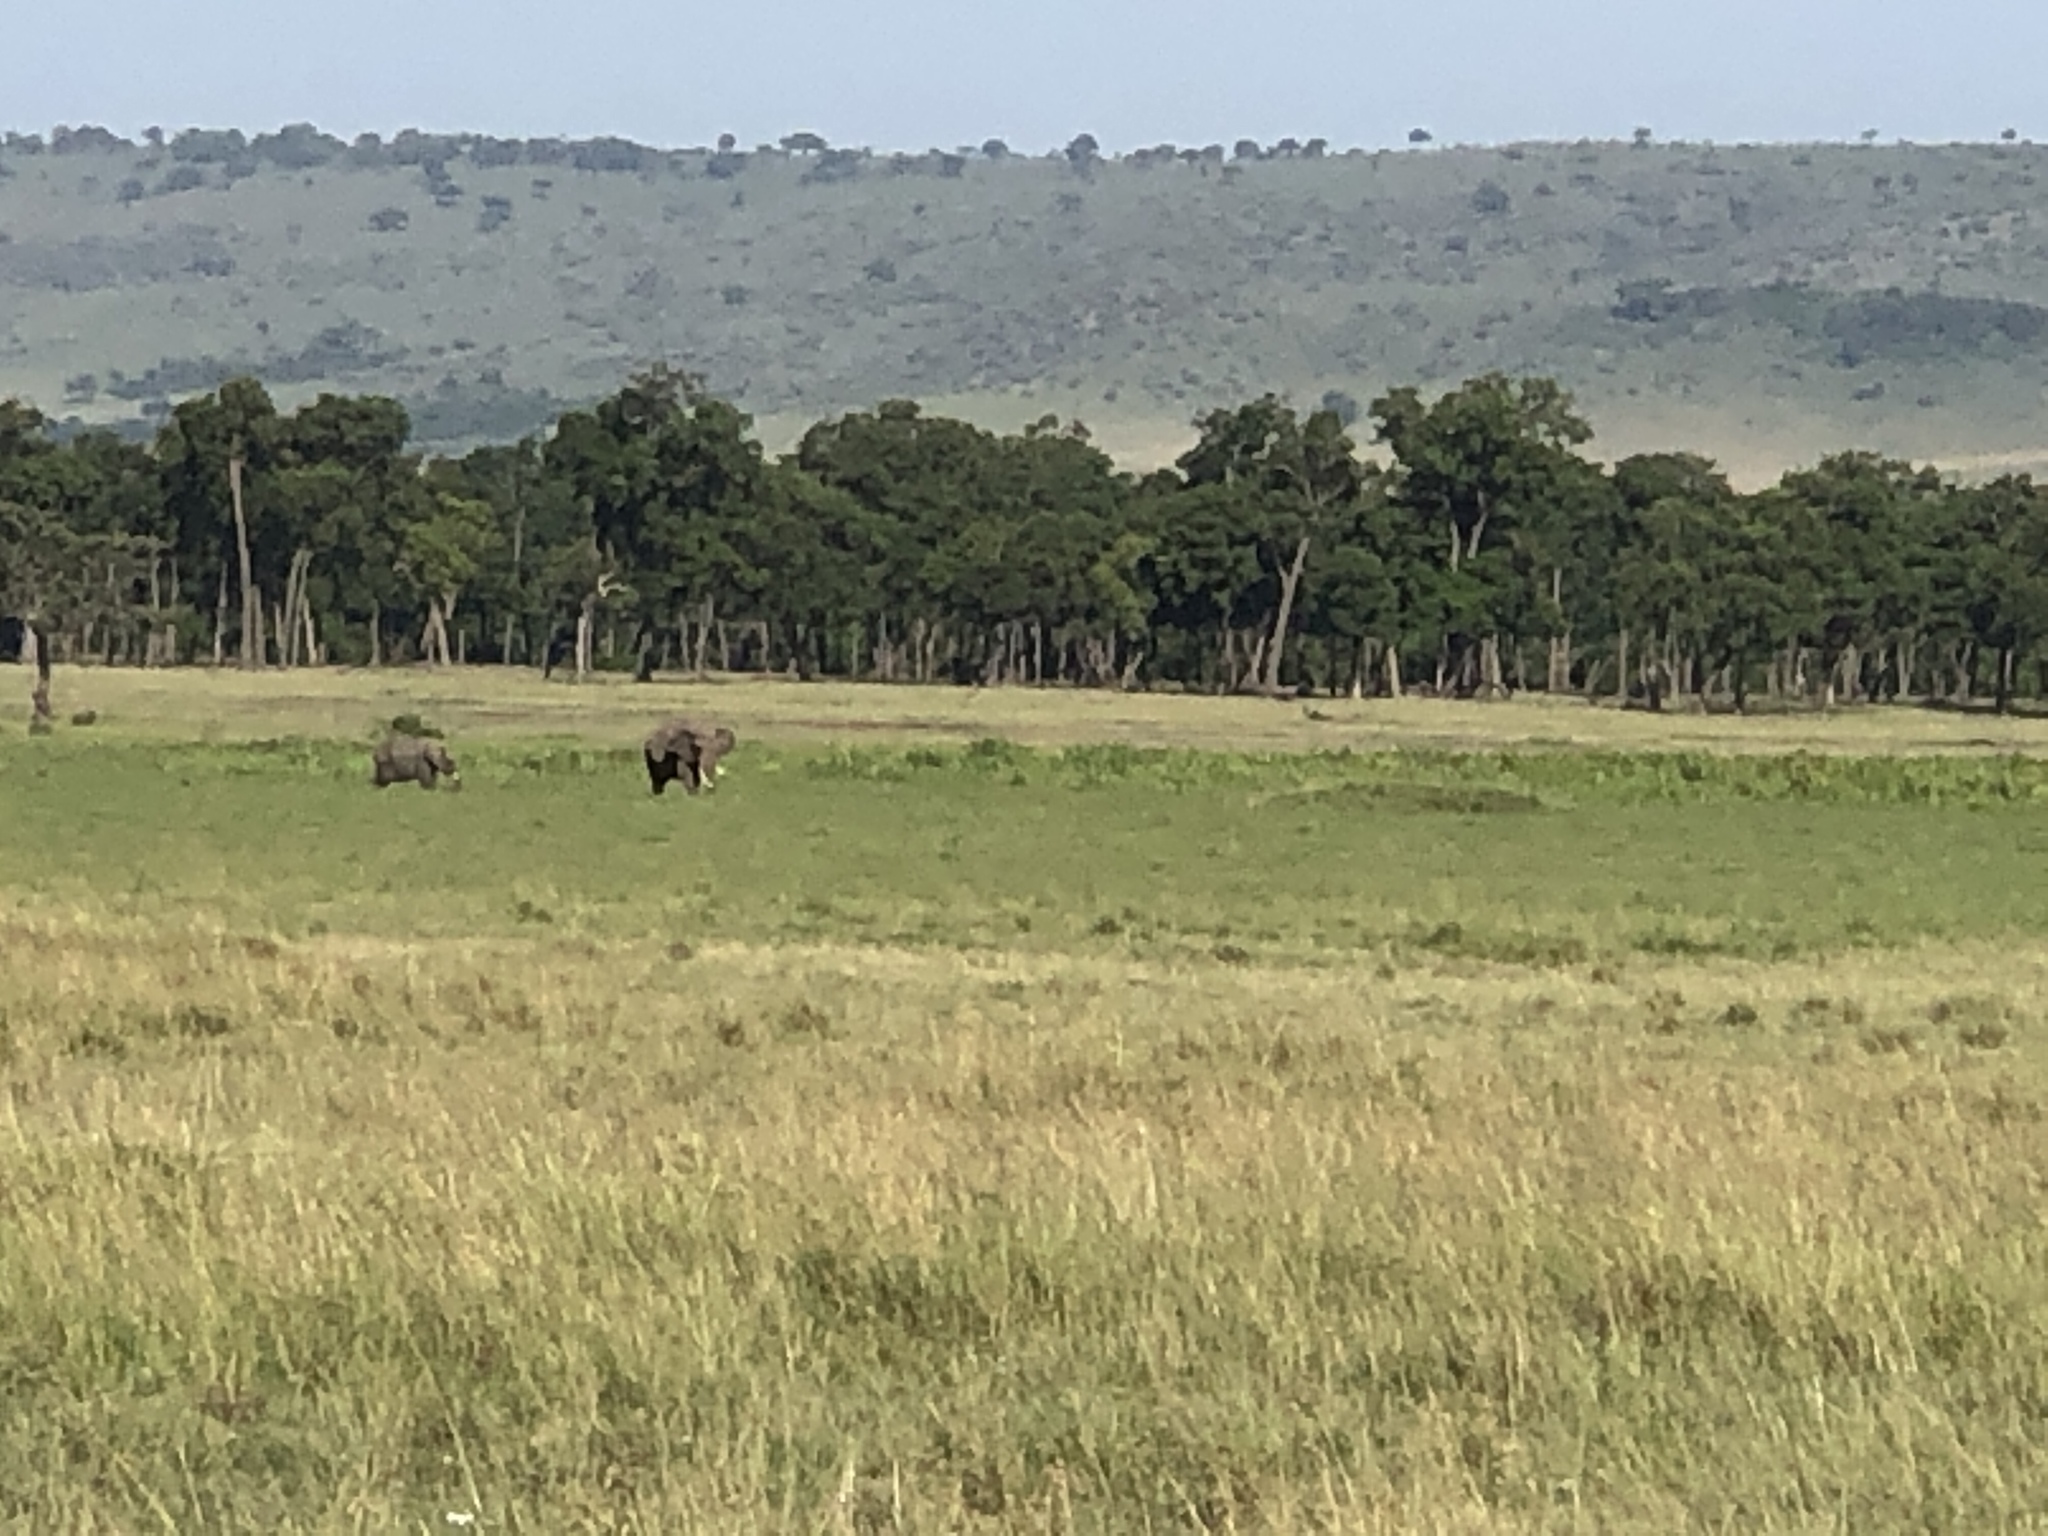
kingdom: Animalia
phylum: Chordata
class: Mammalia
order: Proboscidea
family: Elephantidae
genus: Loxodonta
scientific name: Loxodonta africana
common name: African elephant
